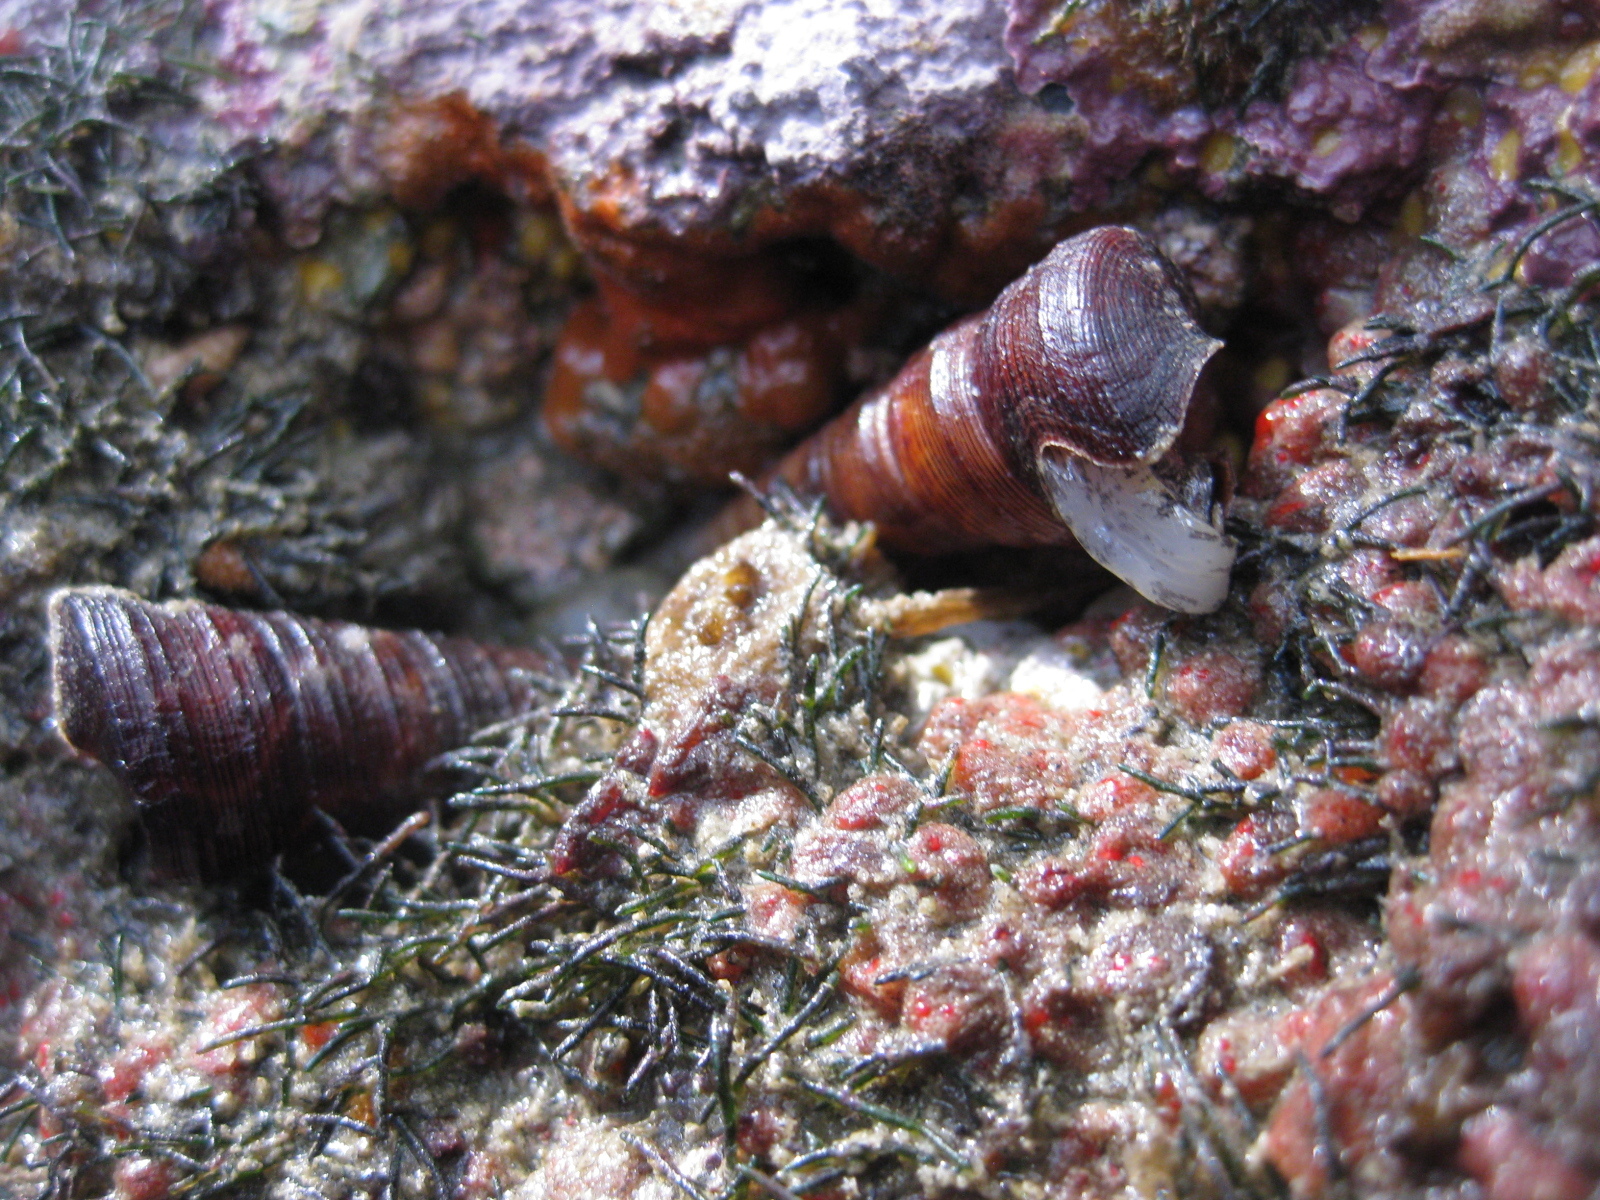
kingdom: Animalia
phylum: Mollusca
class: Gastropoda
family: Turritellidae
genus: Maoricolpus
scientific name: Maoricolpus roseus
